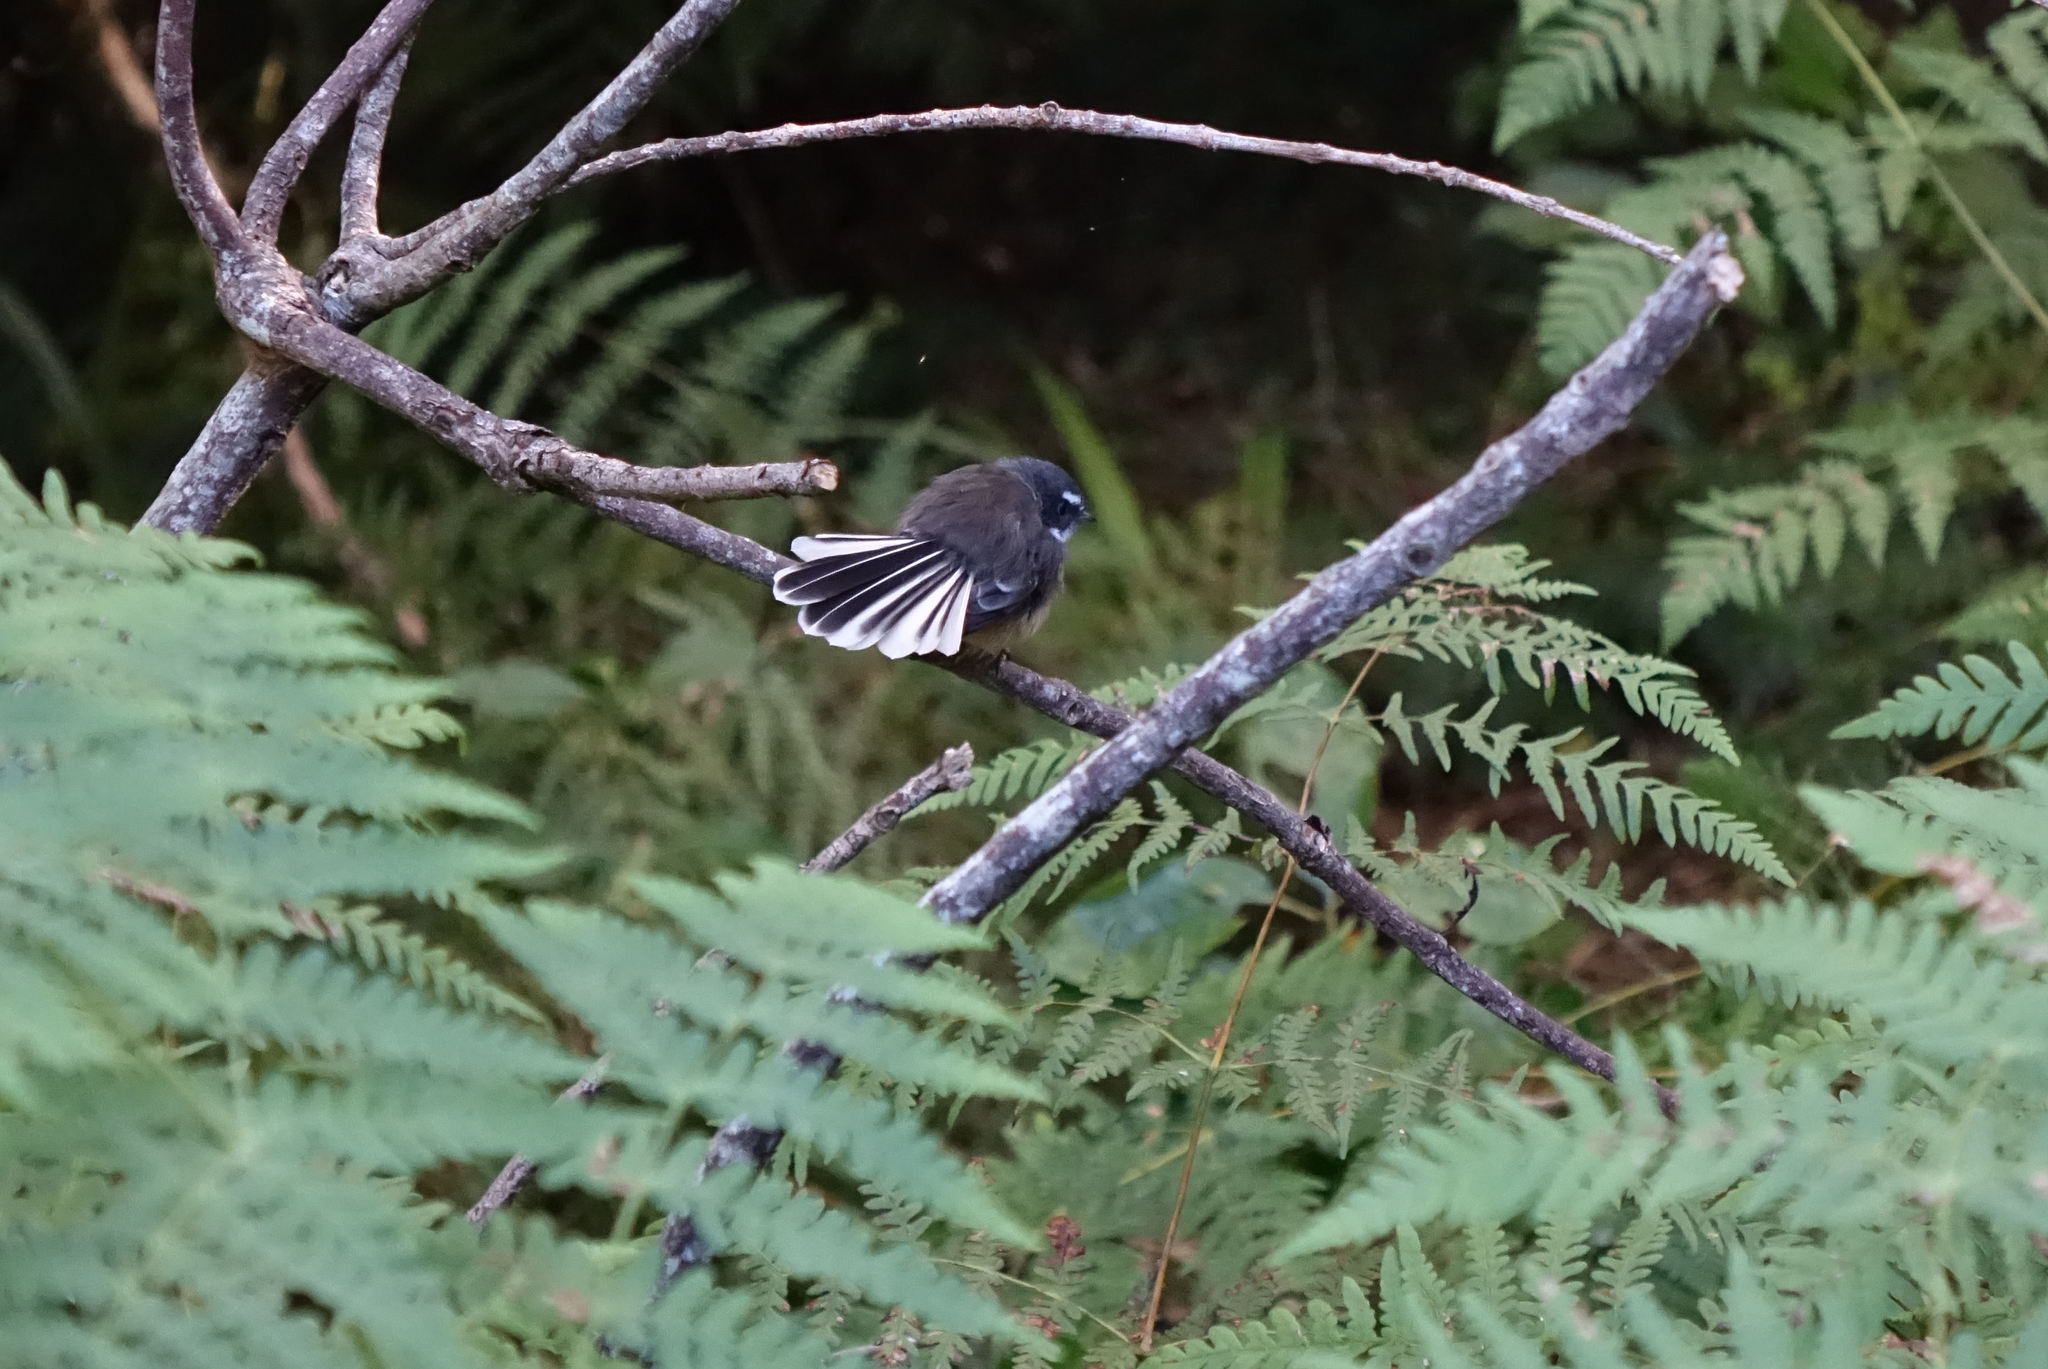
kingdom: Animalia
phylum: Chordata
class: Aves
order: Passeriformes
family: Rhipiduridae
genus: Rhipidura
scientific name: Rhipidura fuliginosa
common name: New zealand fantail
